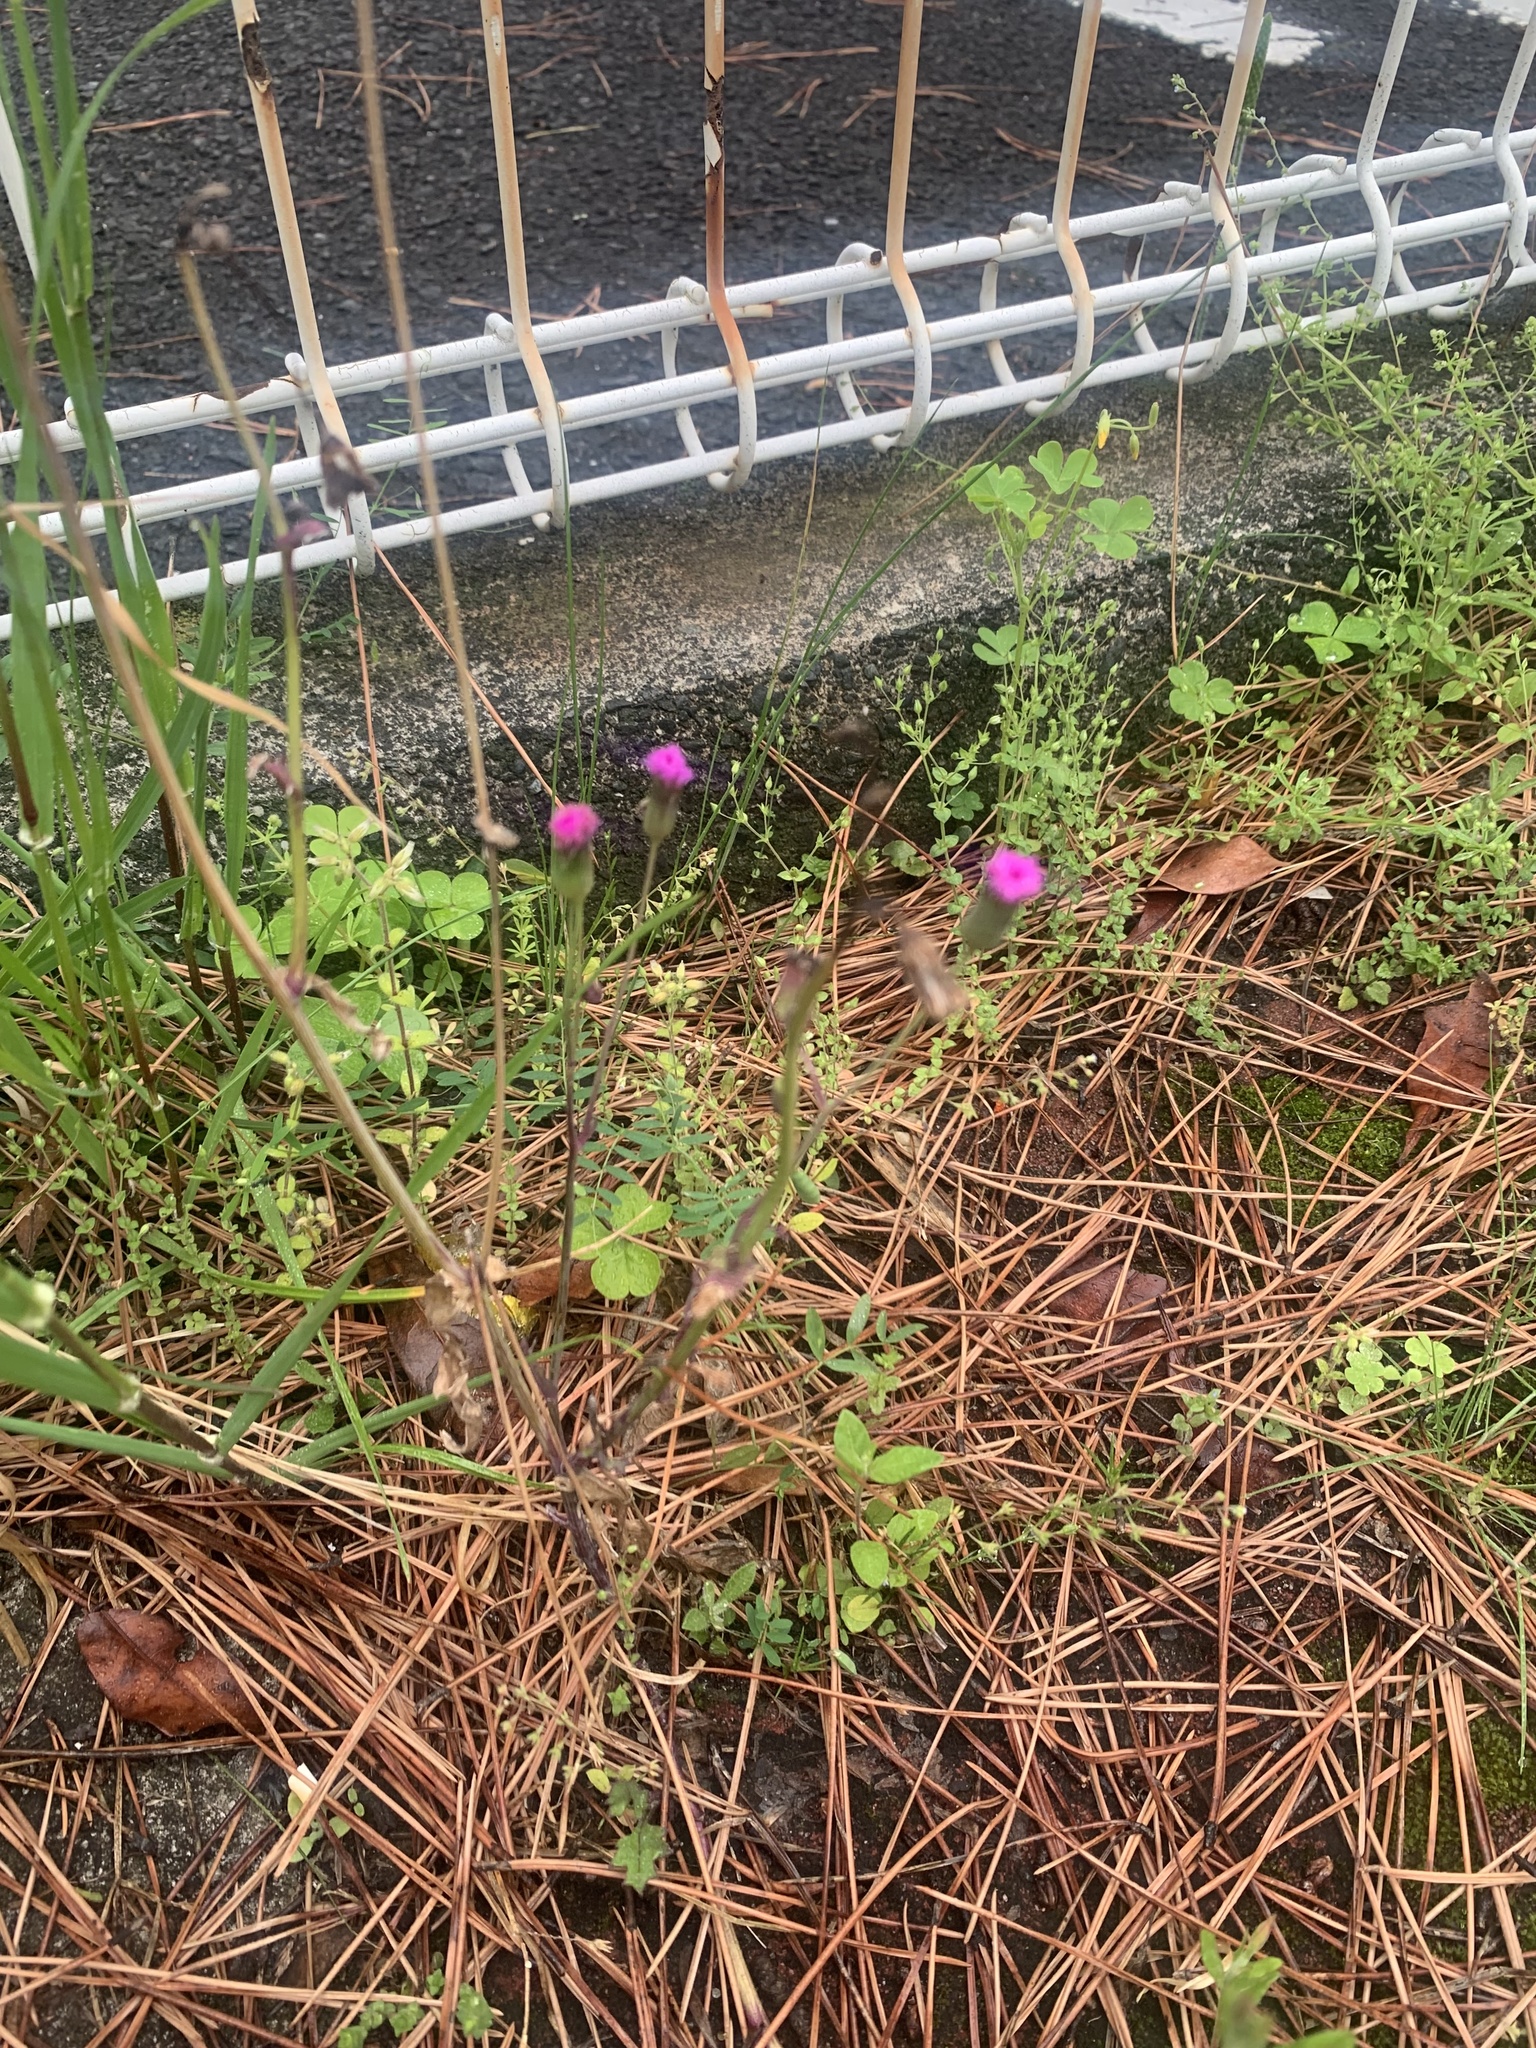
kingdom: Plantae
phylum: Tracheophyta
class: Magnoliopsida
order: Asterales
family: Asteraceae
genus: Emilia
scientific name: Emilia sonchifolia
